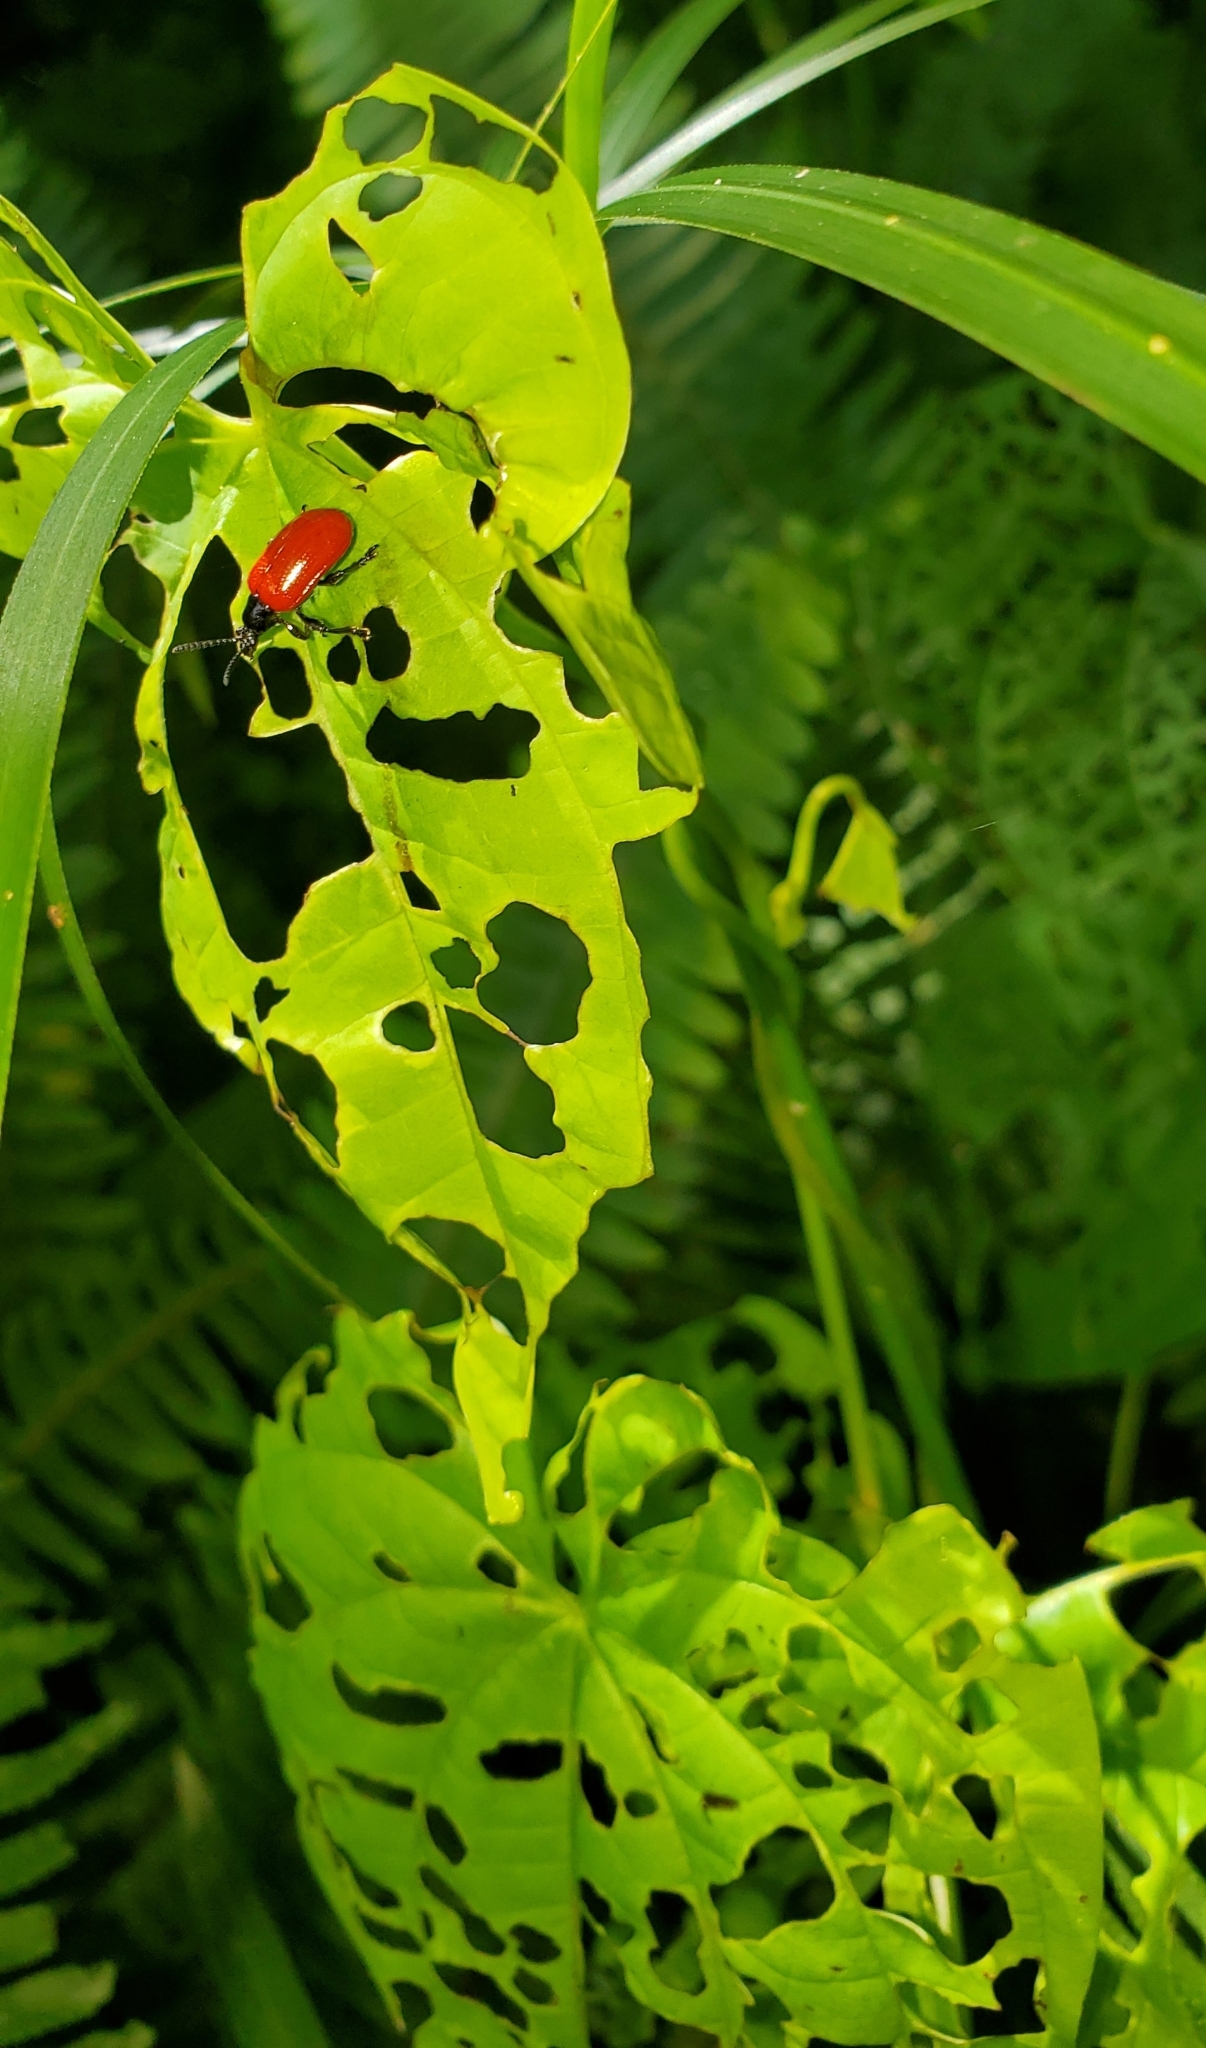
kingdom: Animalia
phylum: Arthropoda
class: Insecta
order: Coleoptera
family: Chrysomelidae
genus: Lilioceris
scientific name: Lilioceris cheni
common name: Leaf beetle
